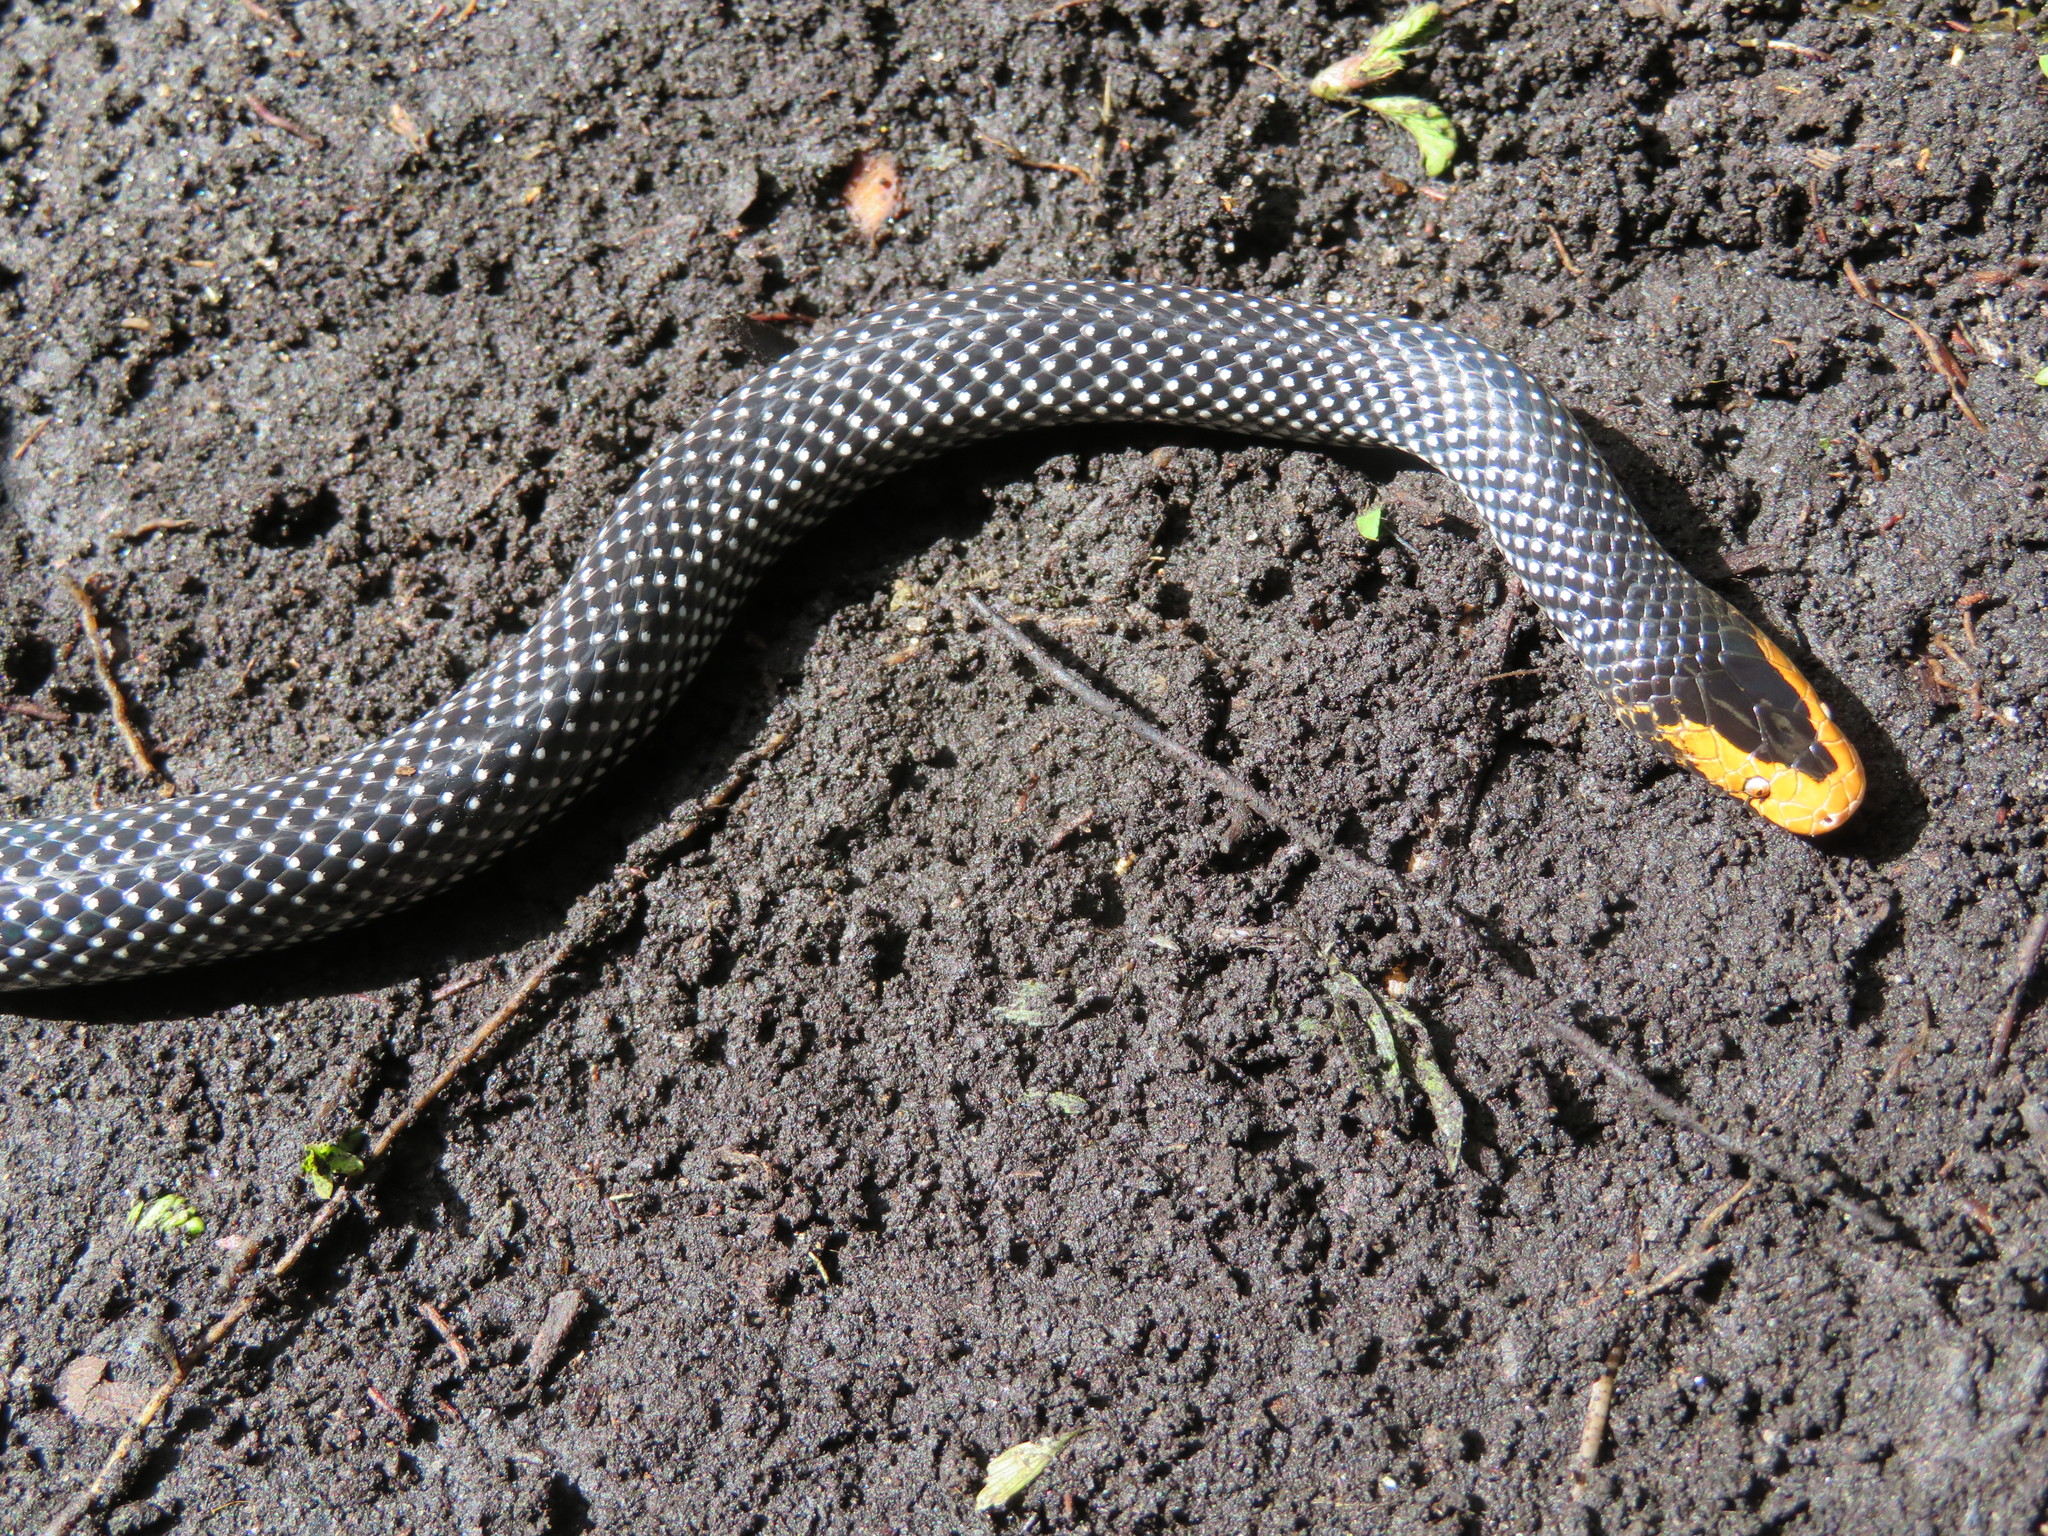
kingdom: Animalia
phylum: Chordata
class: Squamata
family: Lamprophiidae
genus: Lycophidion
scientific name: Lycophidion uzungwense
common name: Red-snouted wolf snake
